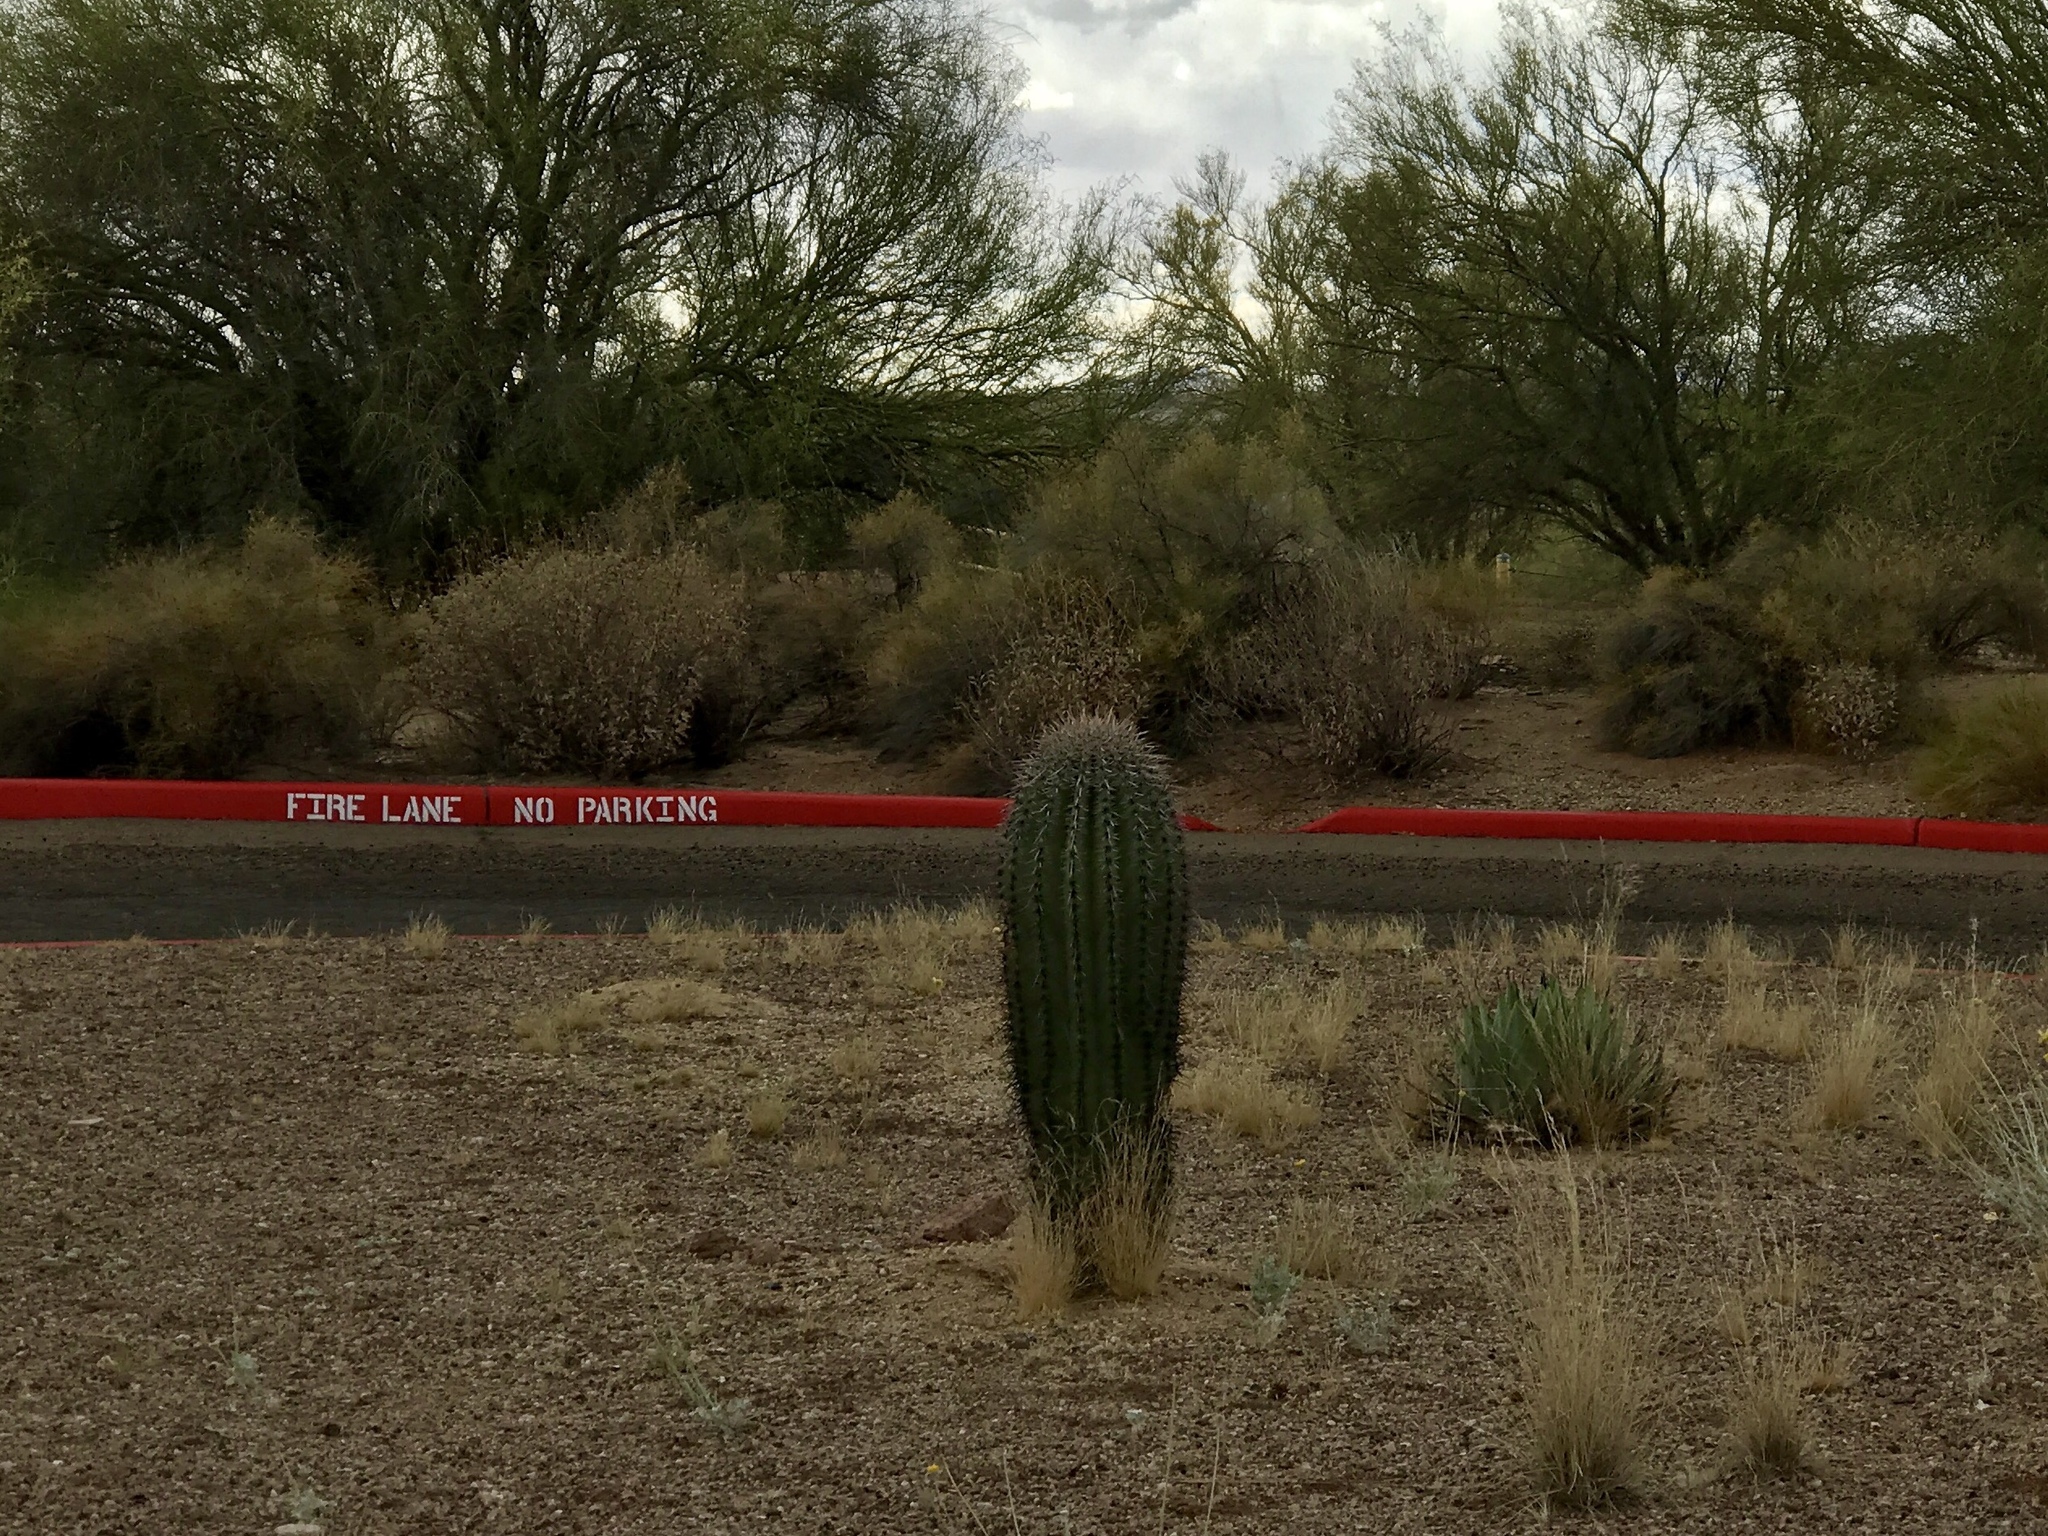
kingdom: Plantae
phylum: Tracheophyta
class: Magnoliopsida
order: Caryophyllales
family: Cactaceae
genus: Carnegiea
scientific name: Carnegiea gigantea
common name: Saguaro
